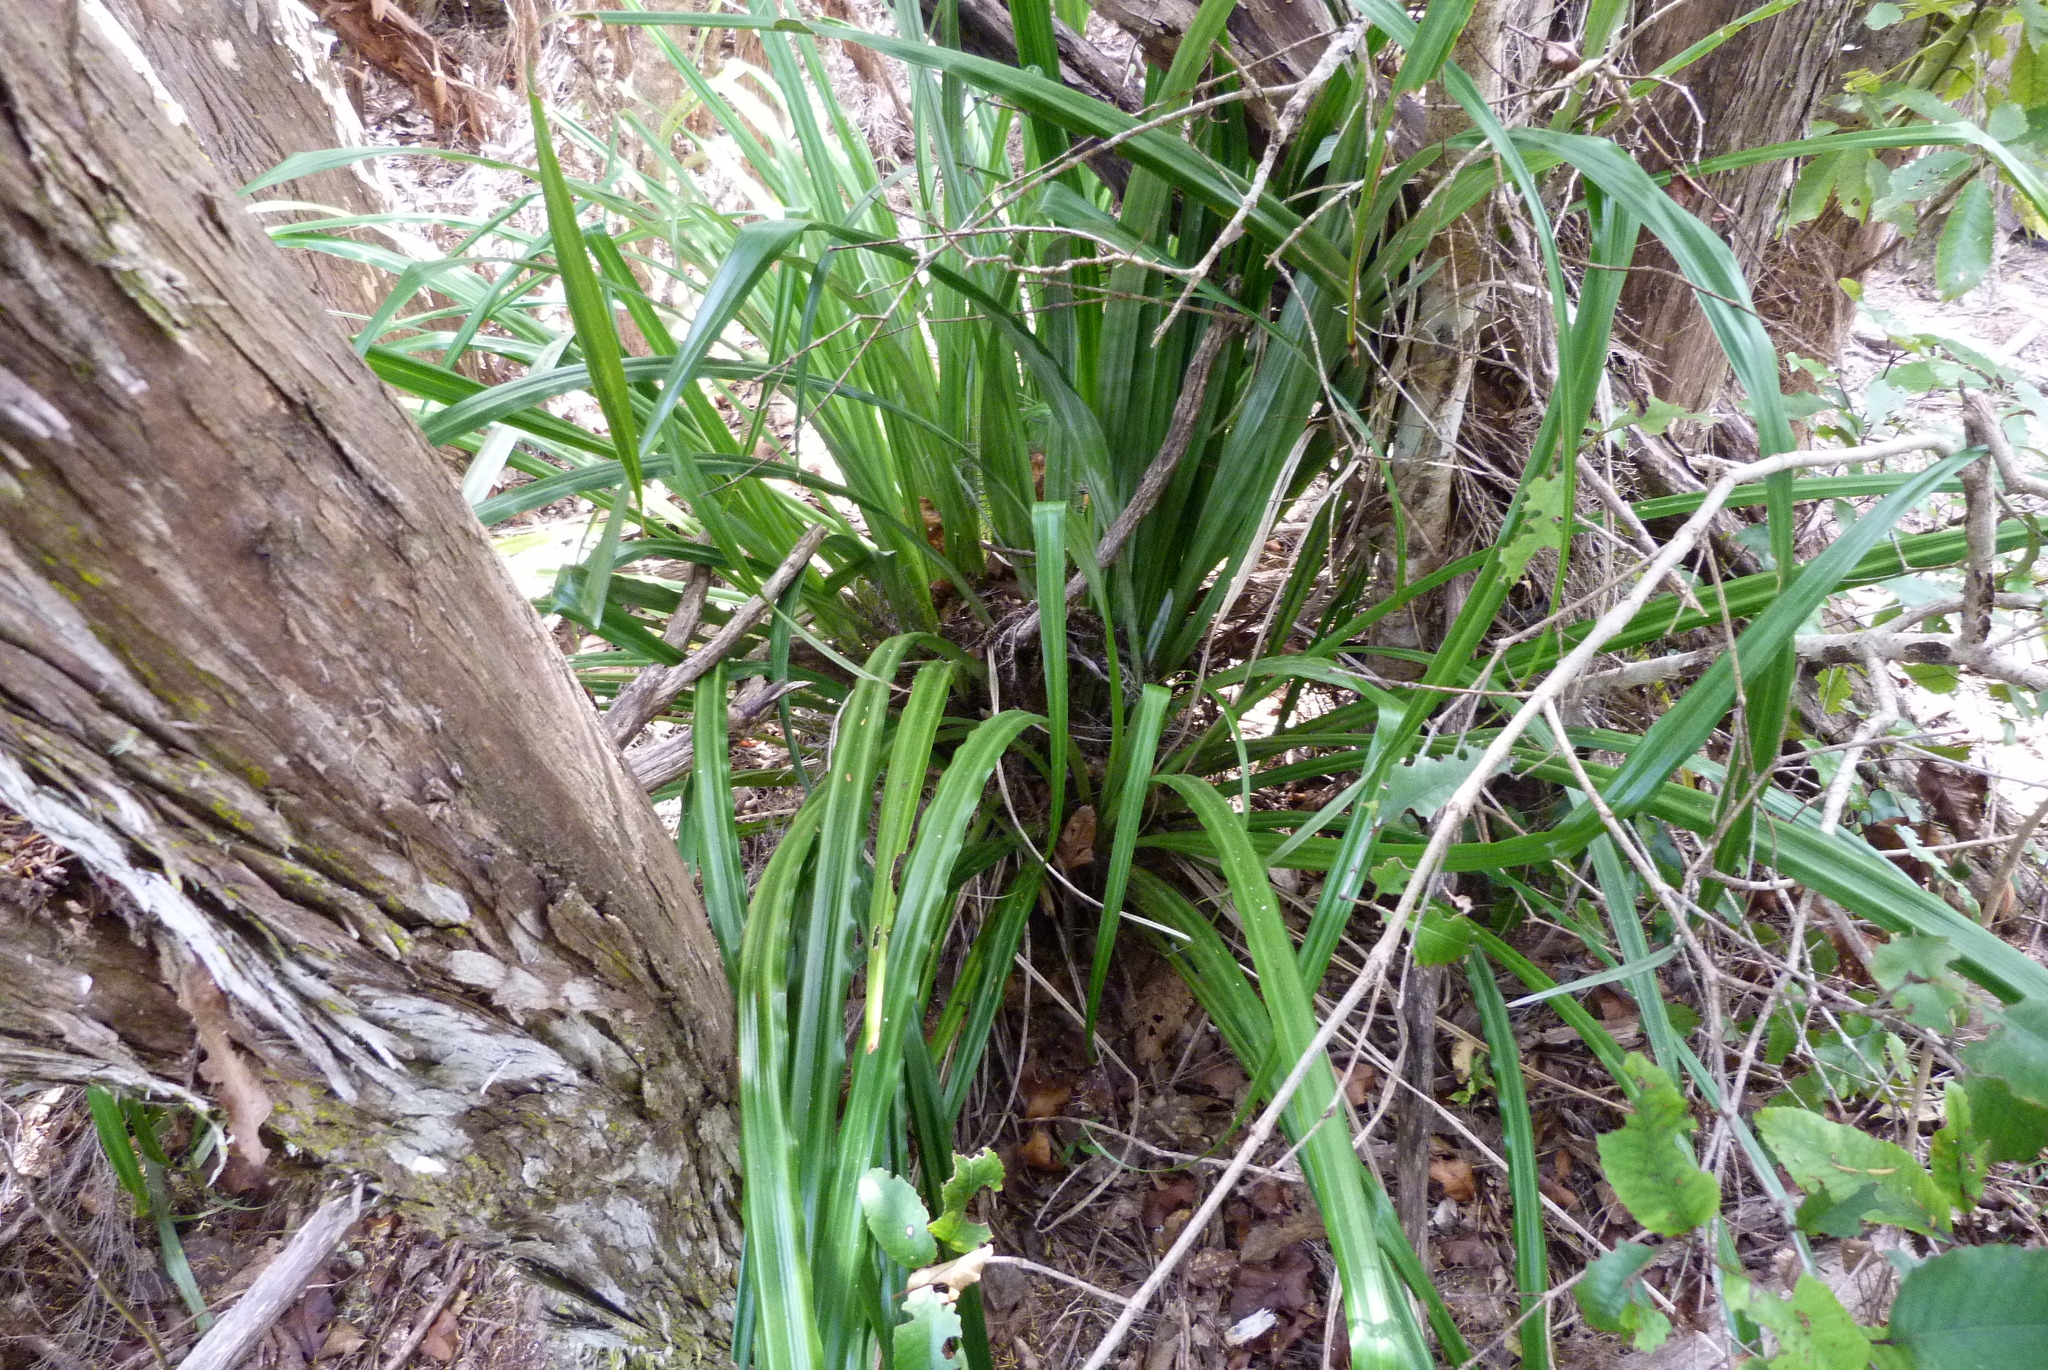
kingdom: Plantae
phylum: Tracheophyta
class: Liliopsida
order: Asparagales
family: Asteliaceae
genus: Astelia
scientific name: Astelia solandri
